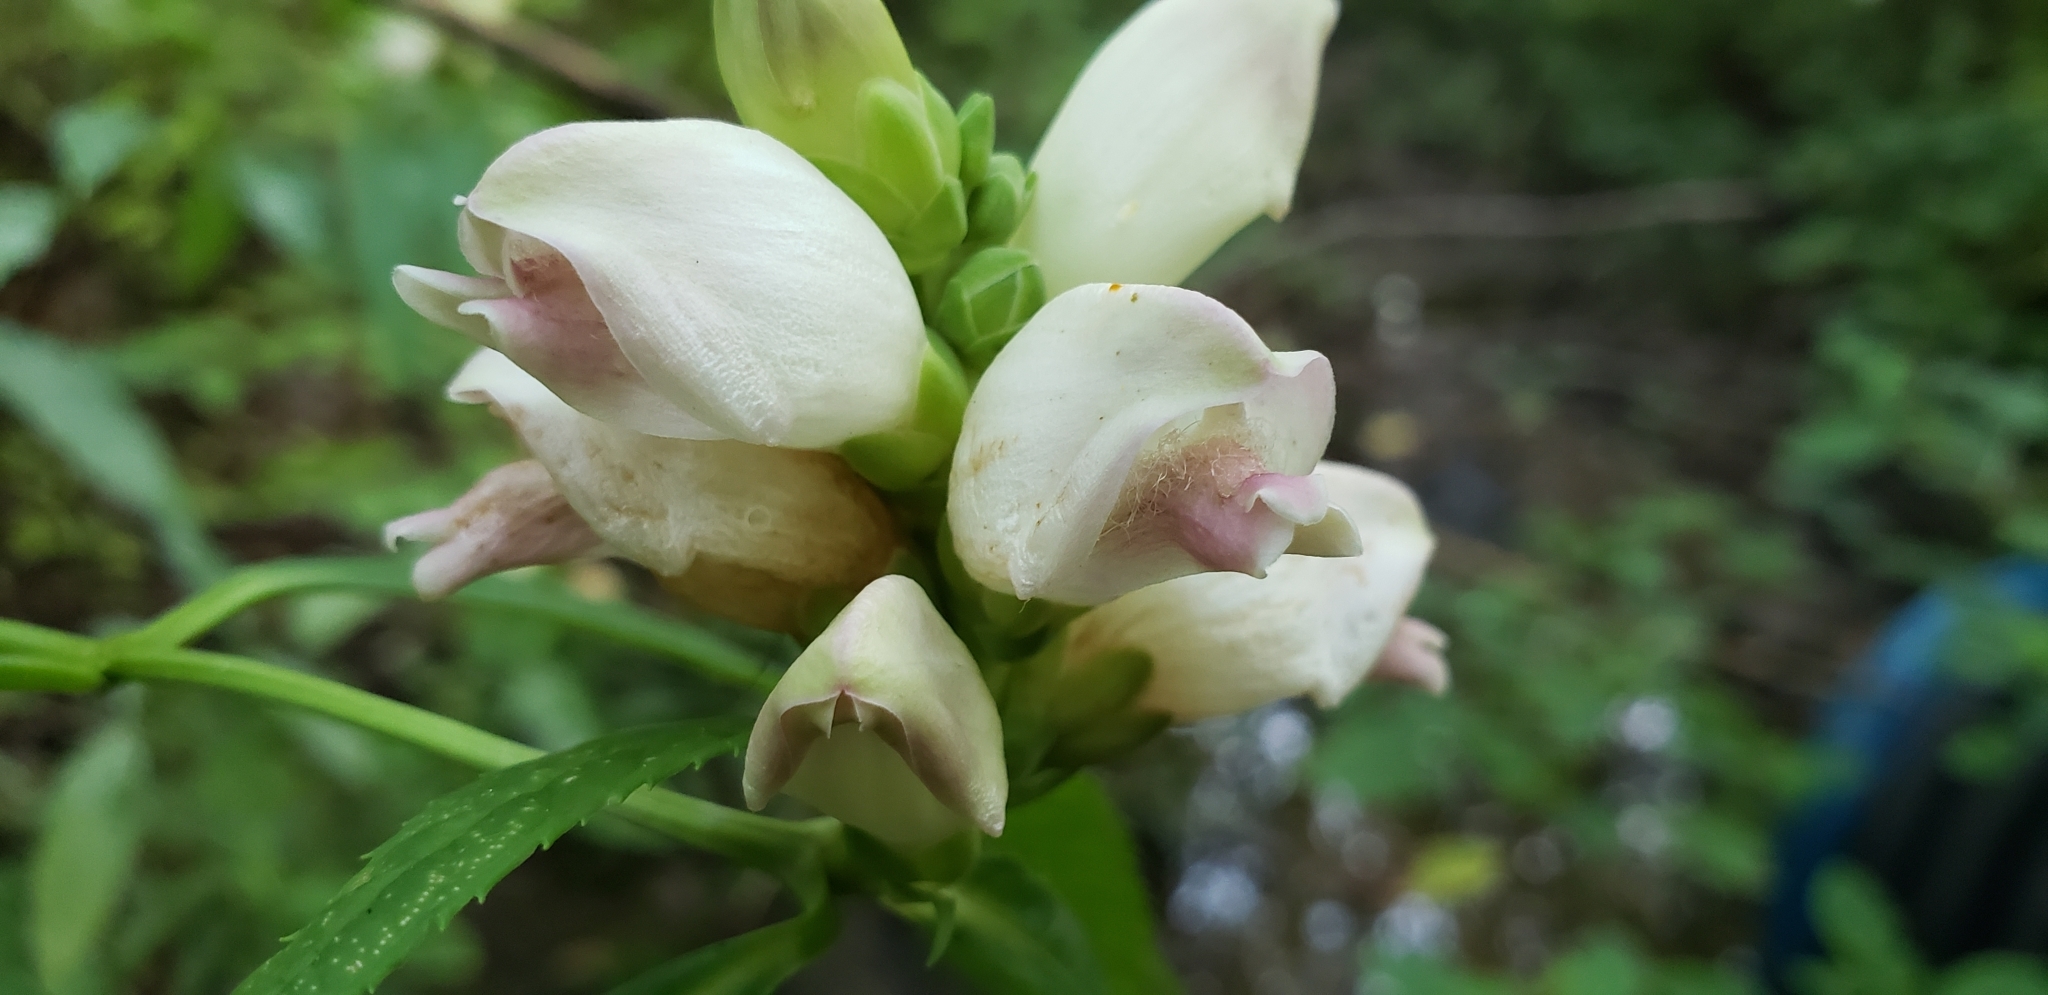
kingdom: Plantae
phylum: Tracheophyta
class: Magnoliopsida
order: Lamiales
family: Plantaginaceae
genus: Chelone
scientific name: Chelone glabra
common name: Snakehead
